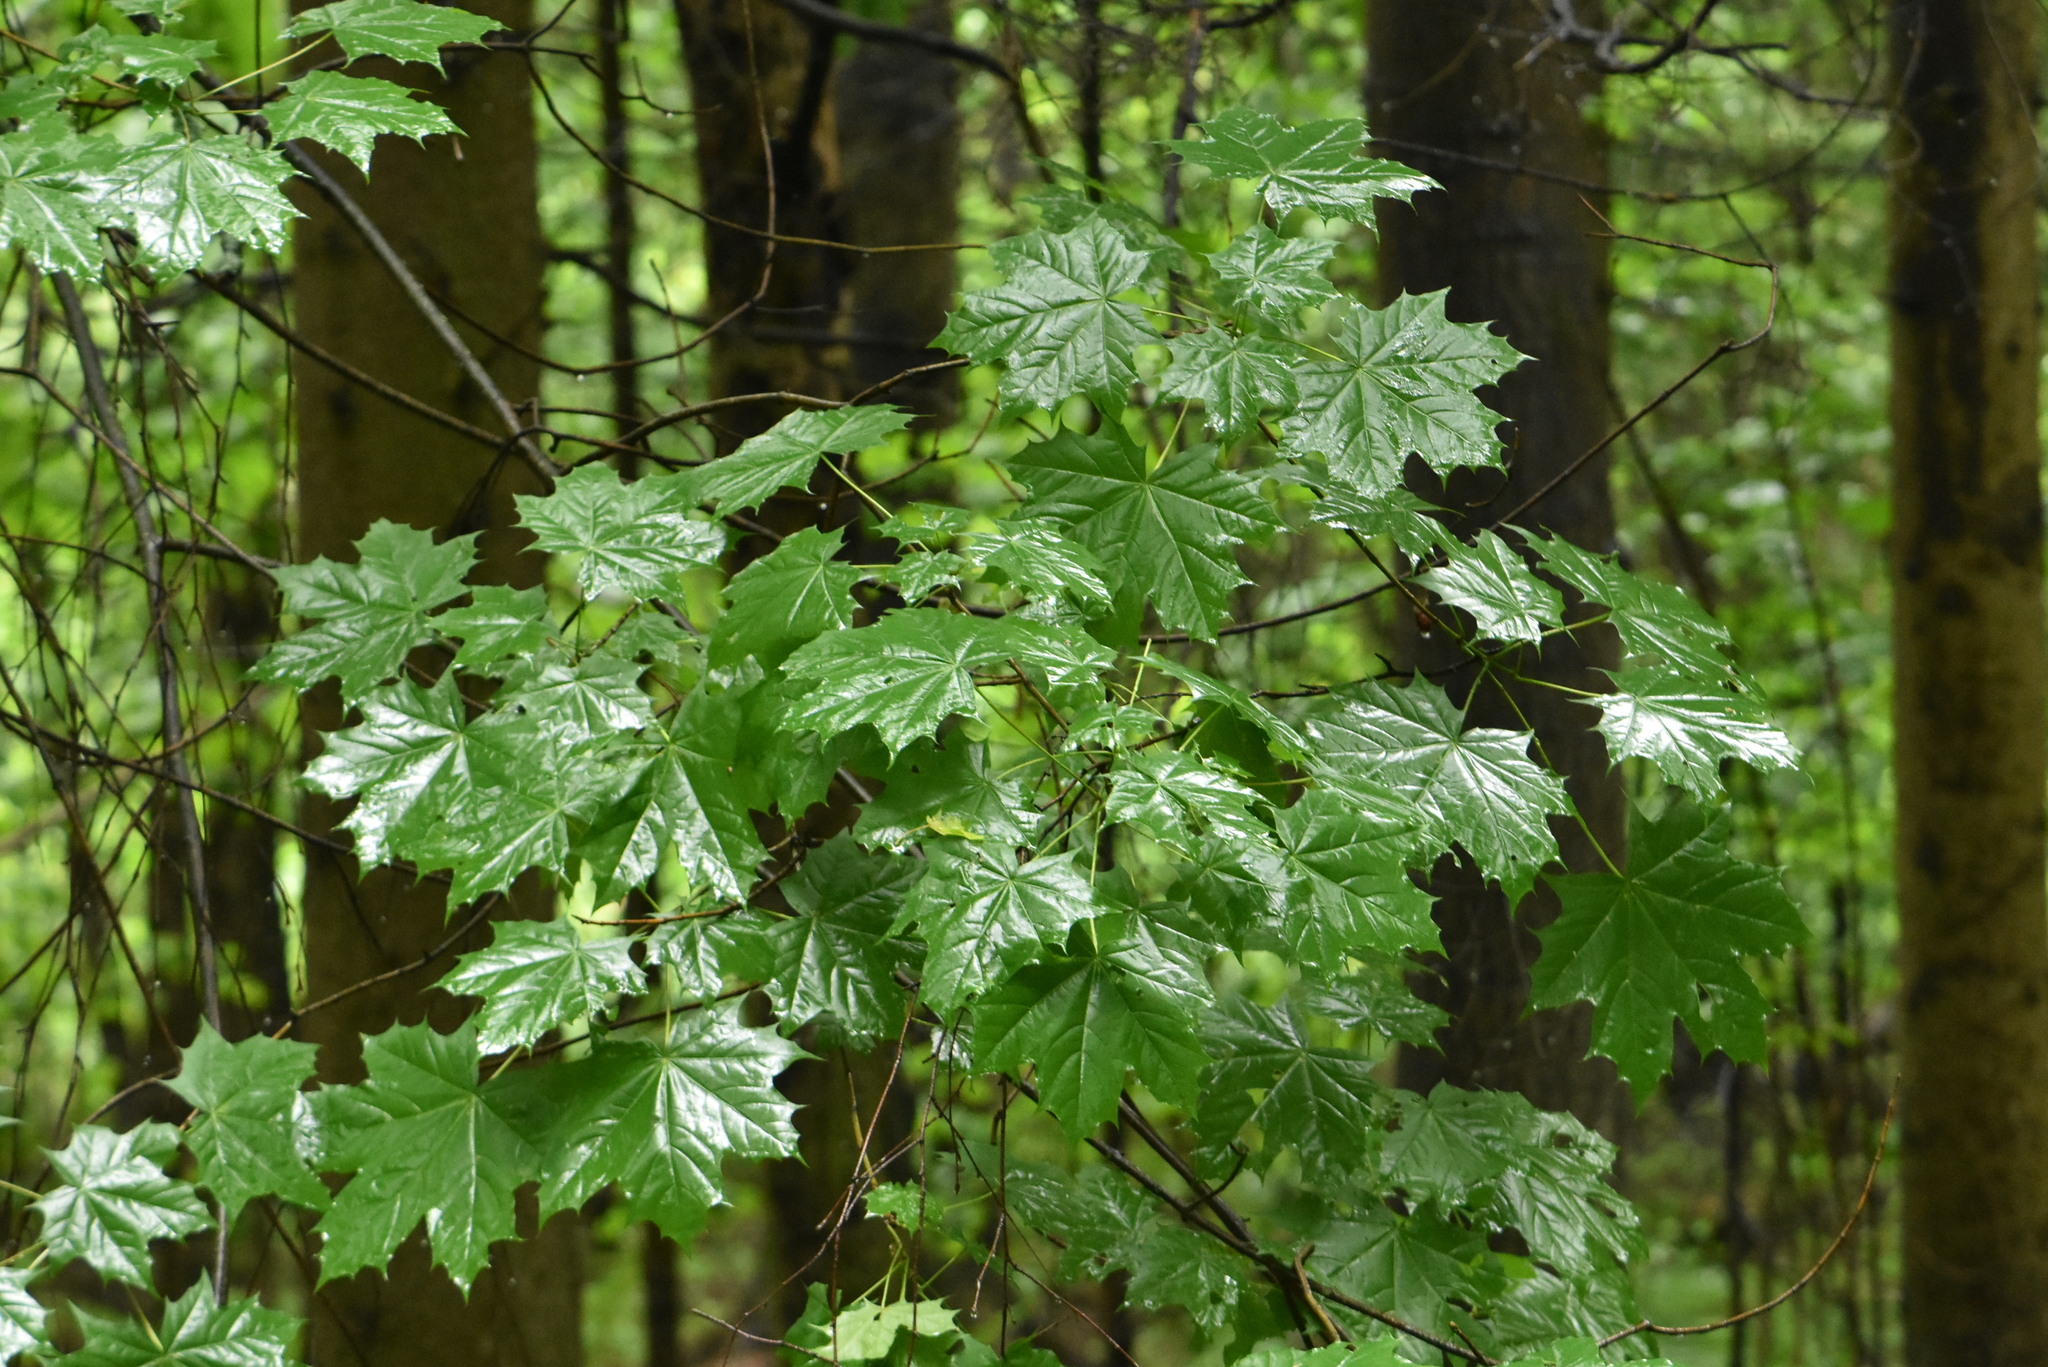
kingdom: Plantae
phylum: Tracheophyta
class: Magnoliopsida
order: Sapindales
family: Sapindaceae
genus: Acer
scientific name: Acer platanoides
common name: Norway maple
